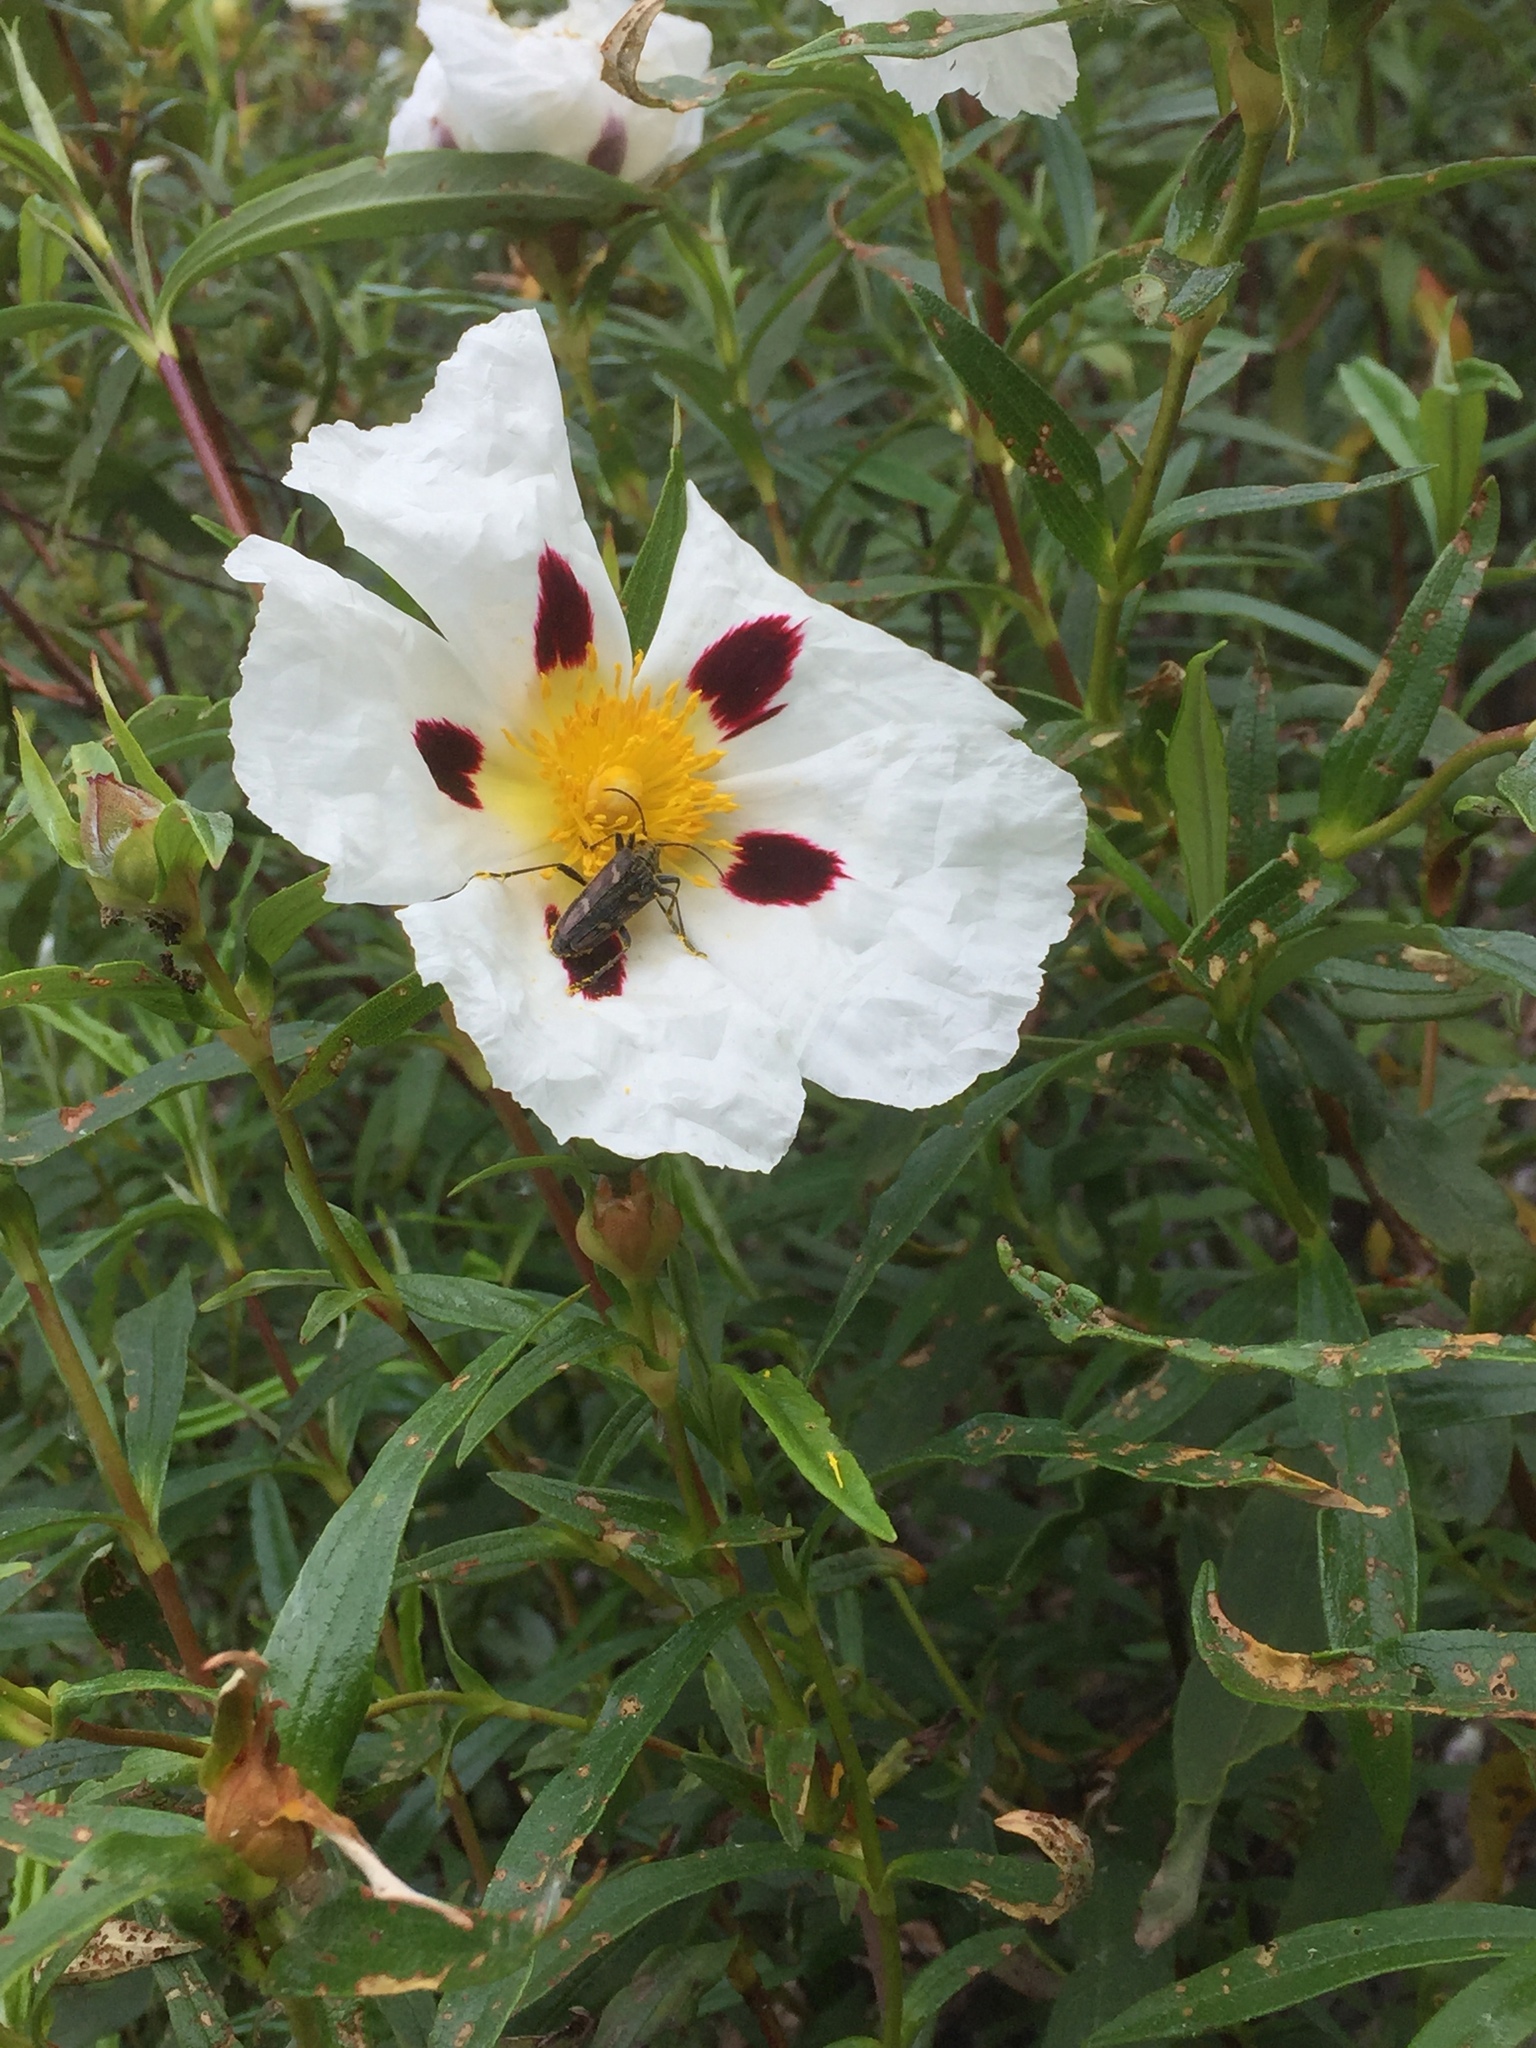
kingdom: Plantae
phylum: Tracheophyta
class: Magnoliopsida
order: Malvales
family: Cistaceae
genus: Cistus
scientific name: Cistus ladanifer
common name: Common gum cistus
